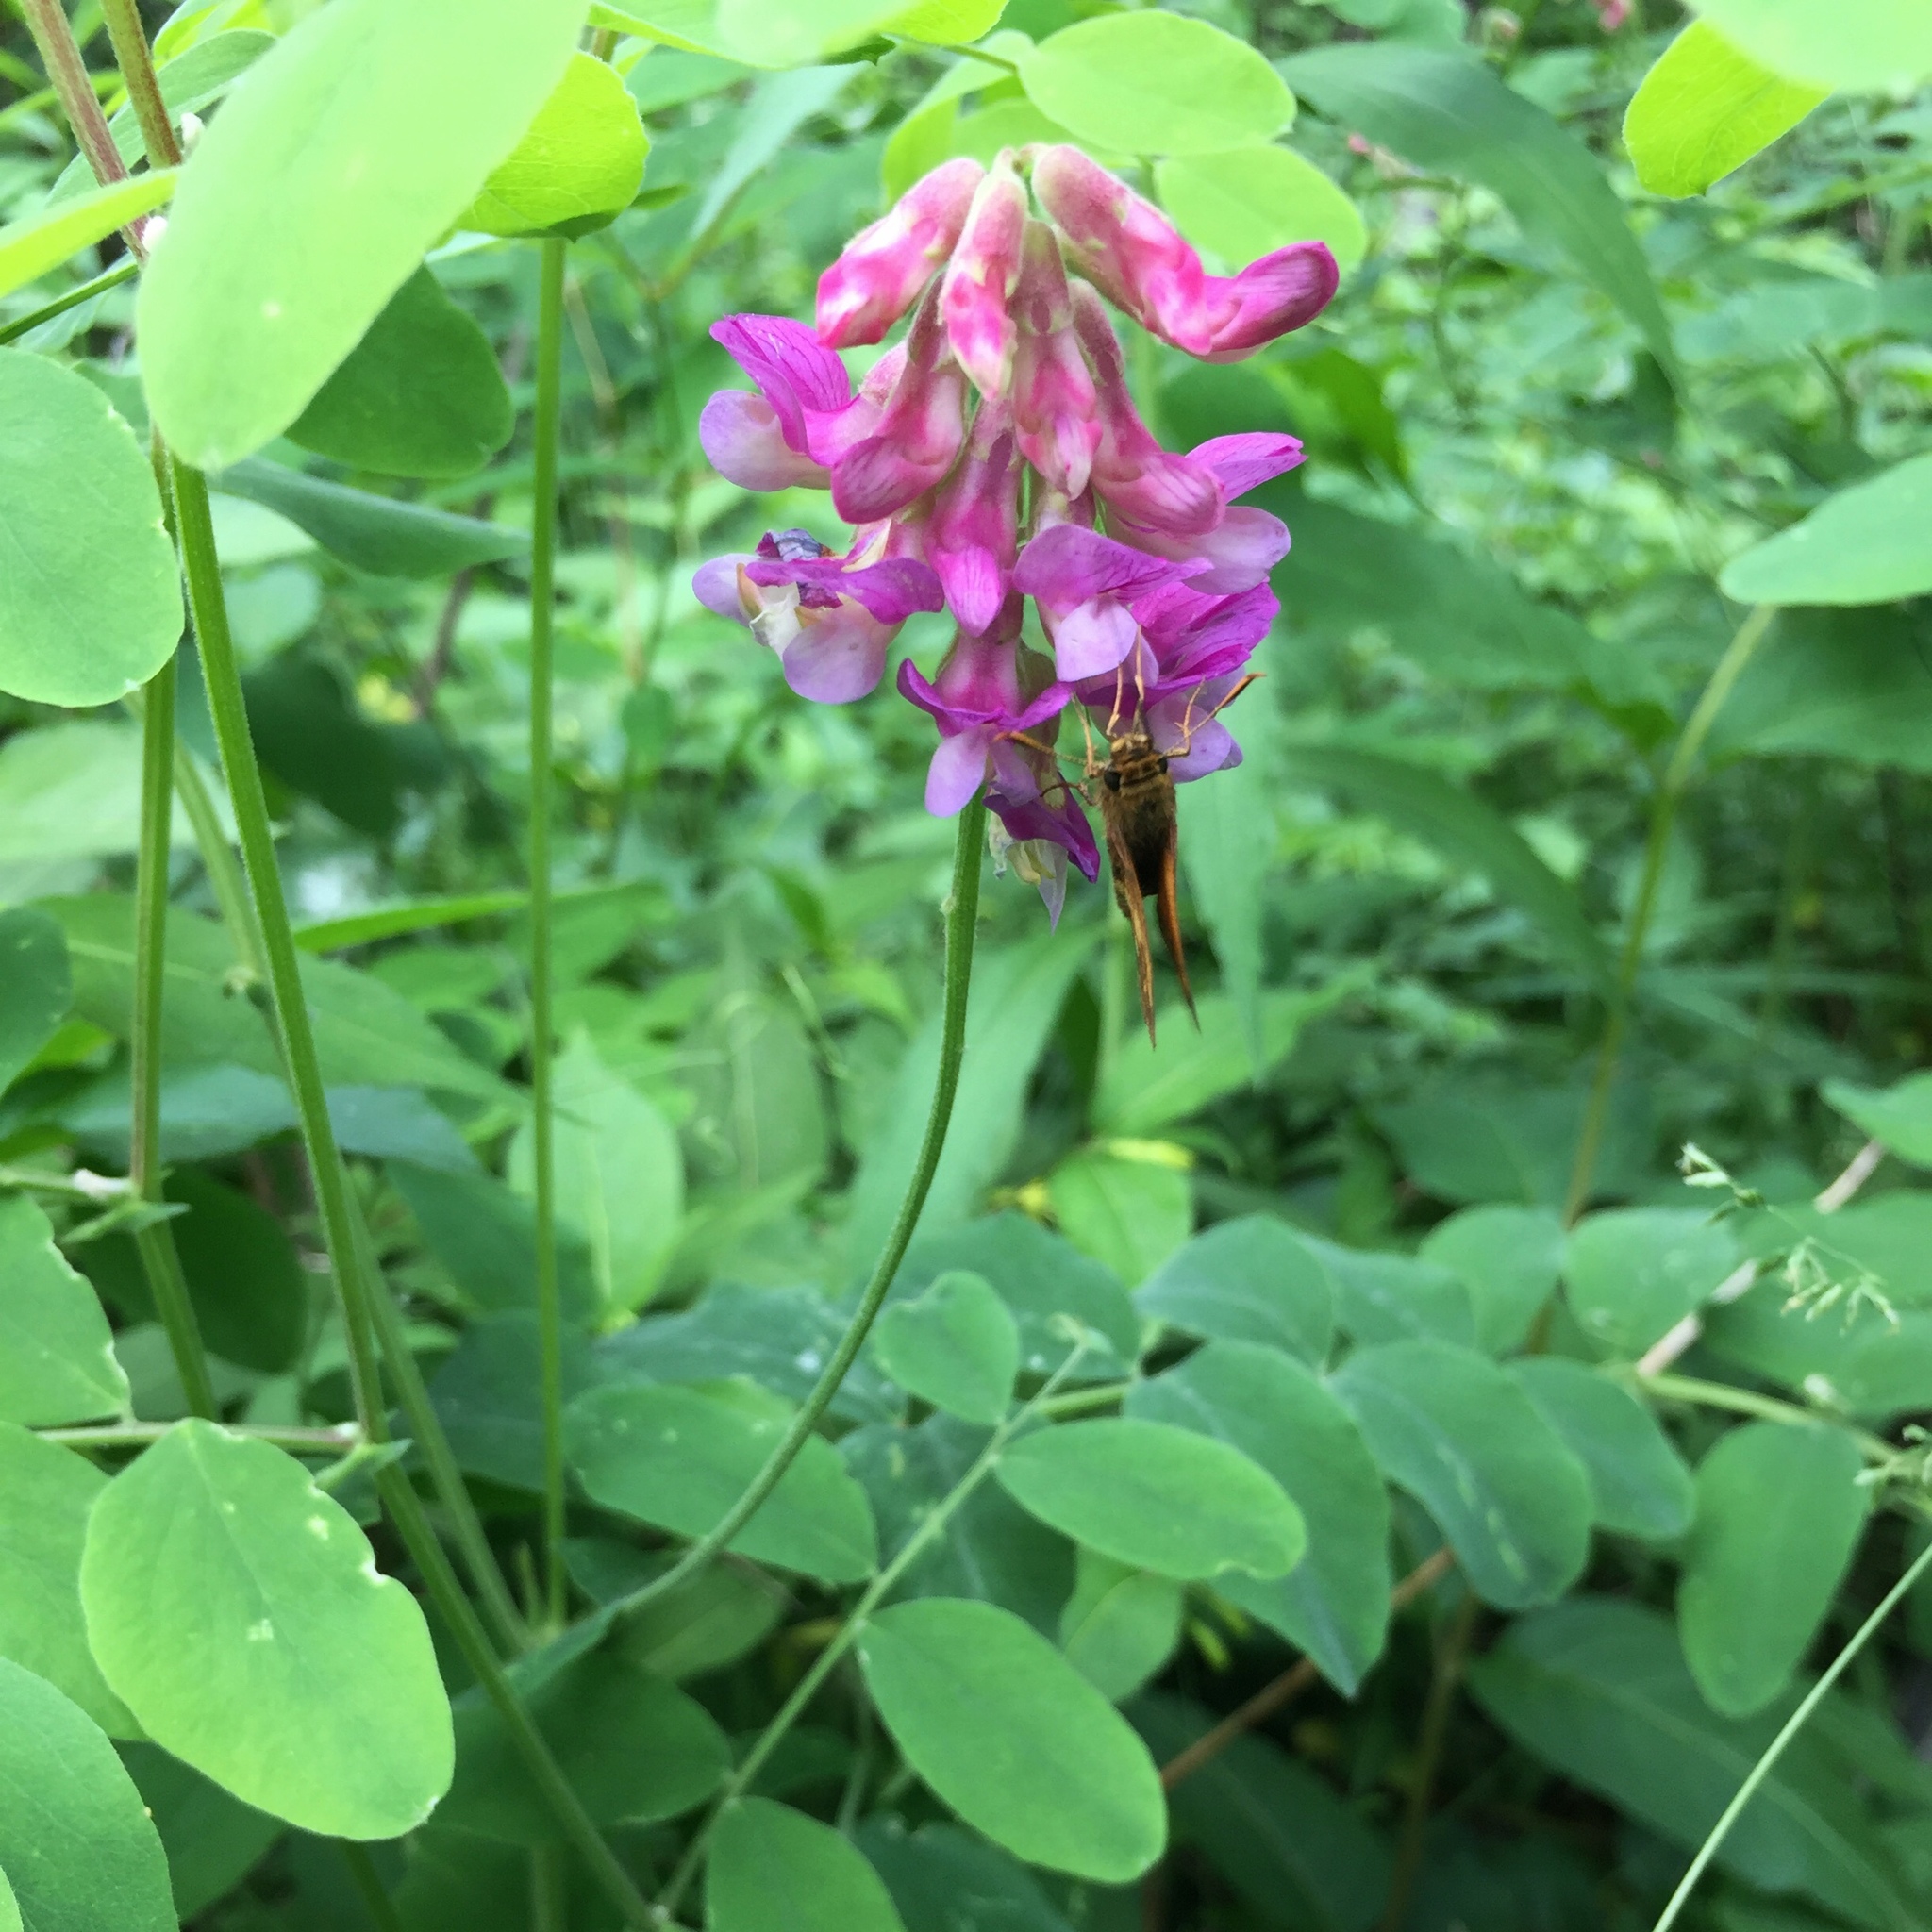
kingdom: Plantae
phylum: Tracheophyta
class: Magnoliopsida
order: Fabales
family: Fabaceae
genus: Lathyrus
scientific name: Lathyrus venosus
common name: Forest-pea
